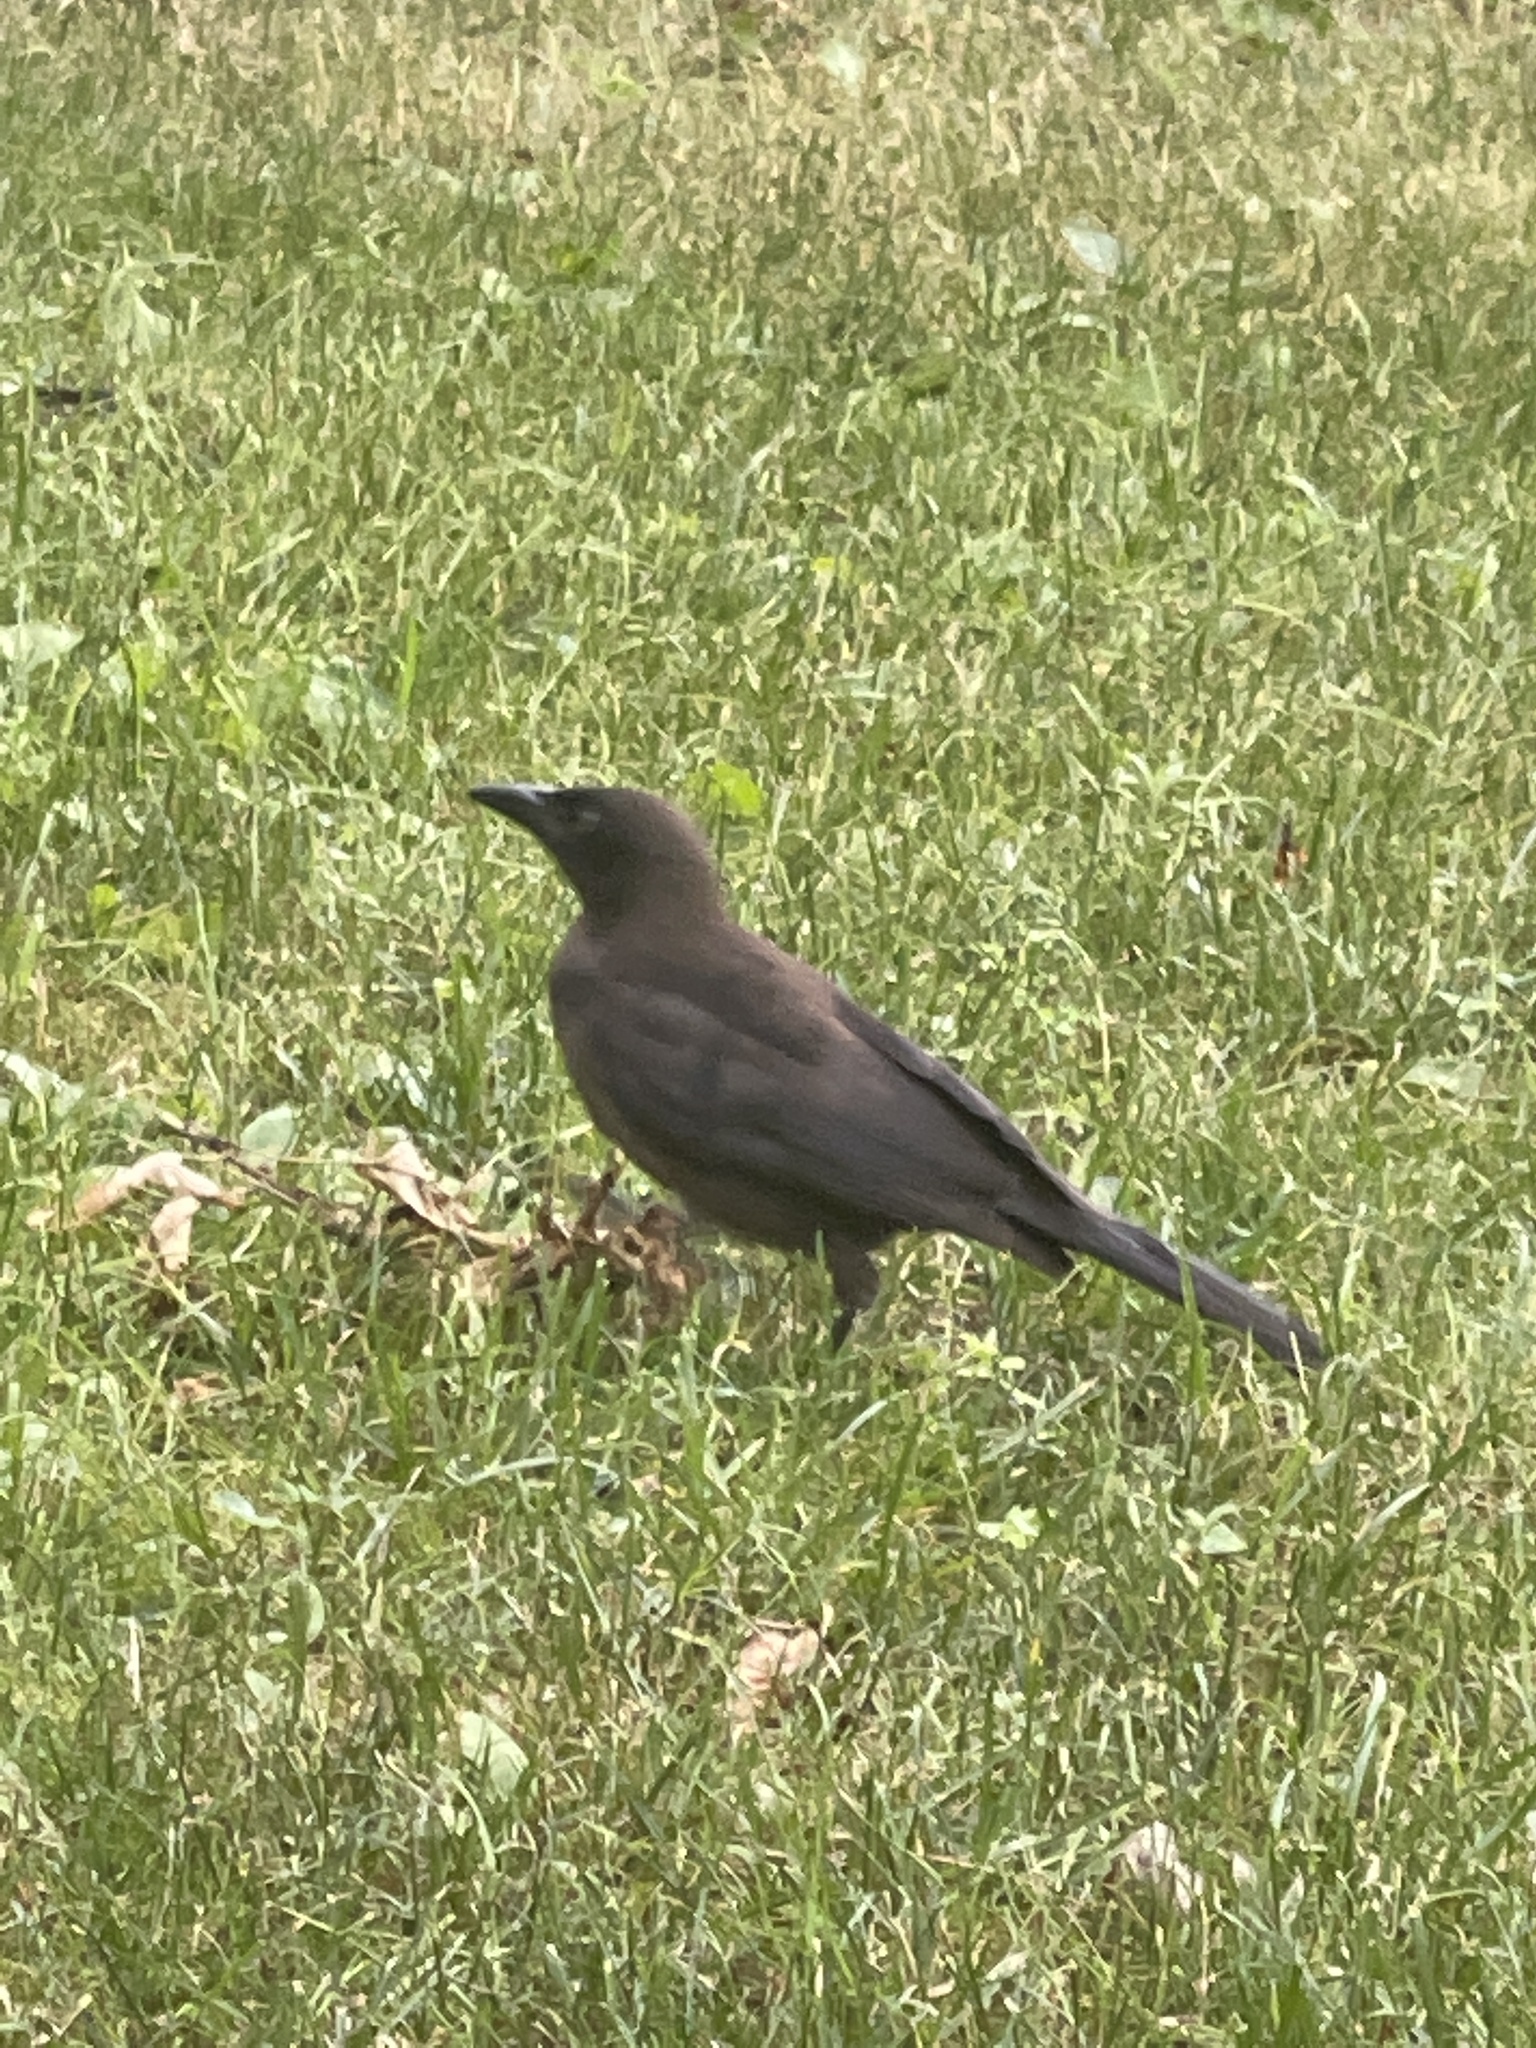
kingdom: Animalia
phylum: Chordata
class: Aves
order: Passeriformes
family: Icteridae
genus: Quiscalus
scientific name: Quiscalus quiscula
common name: Common grackle
